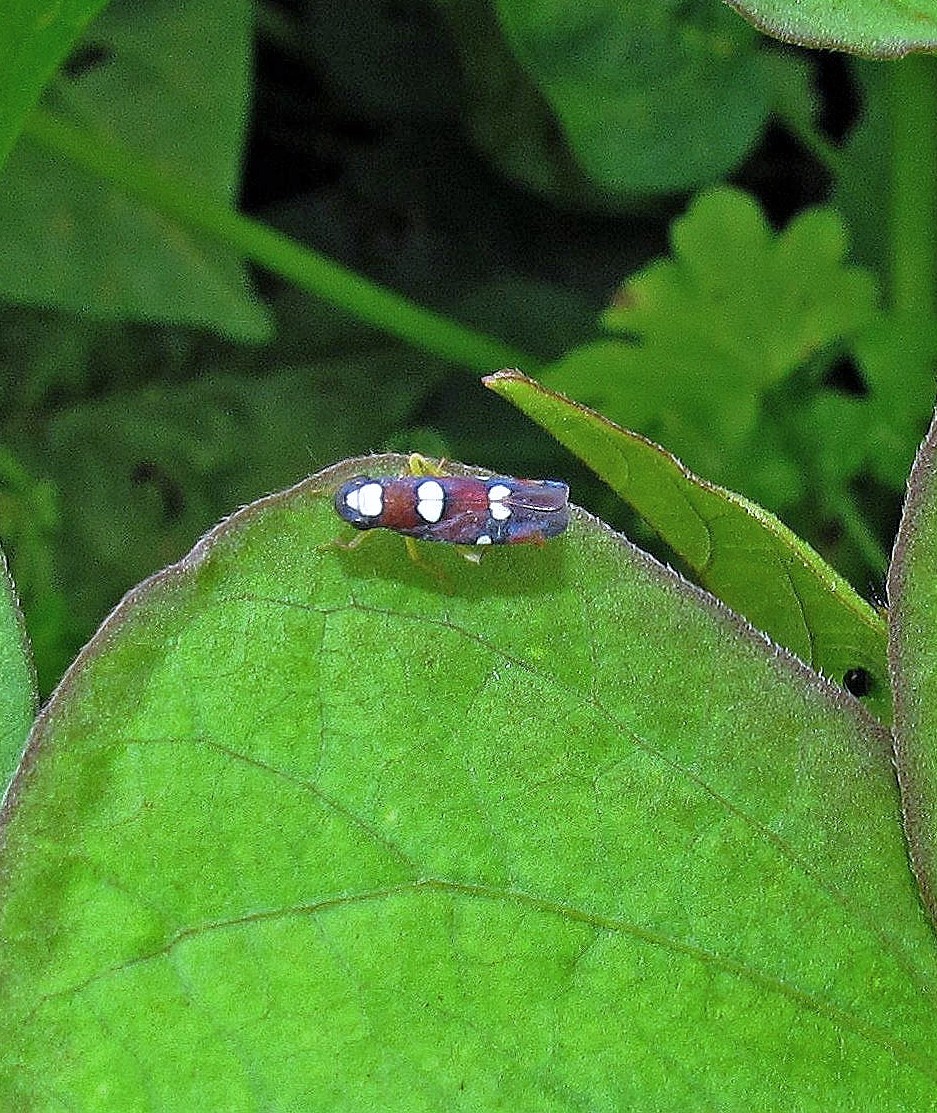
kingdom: Animalia
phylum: Arthropoda
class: Insecta
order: Hemiptera
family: Cicadellidae
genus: Erythrogonia
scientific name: Erythrogonia comensa
